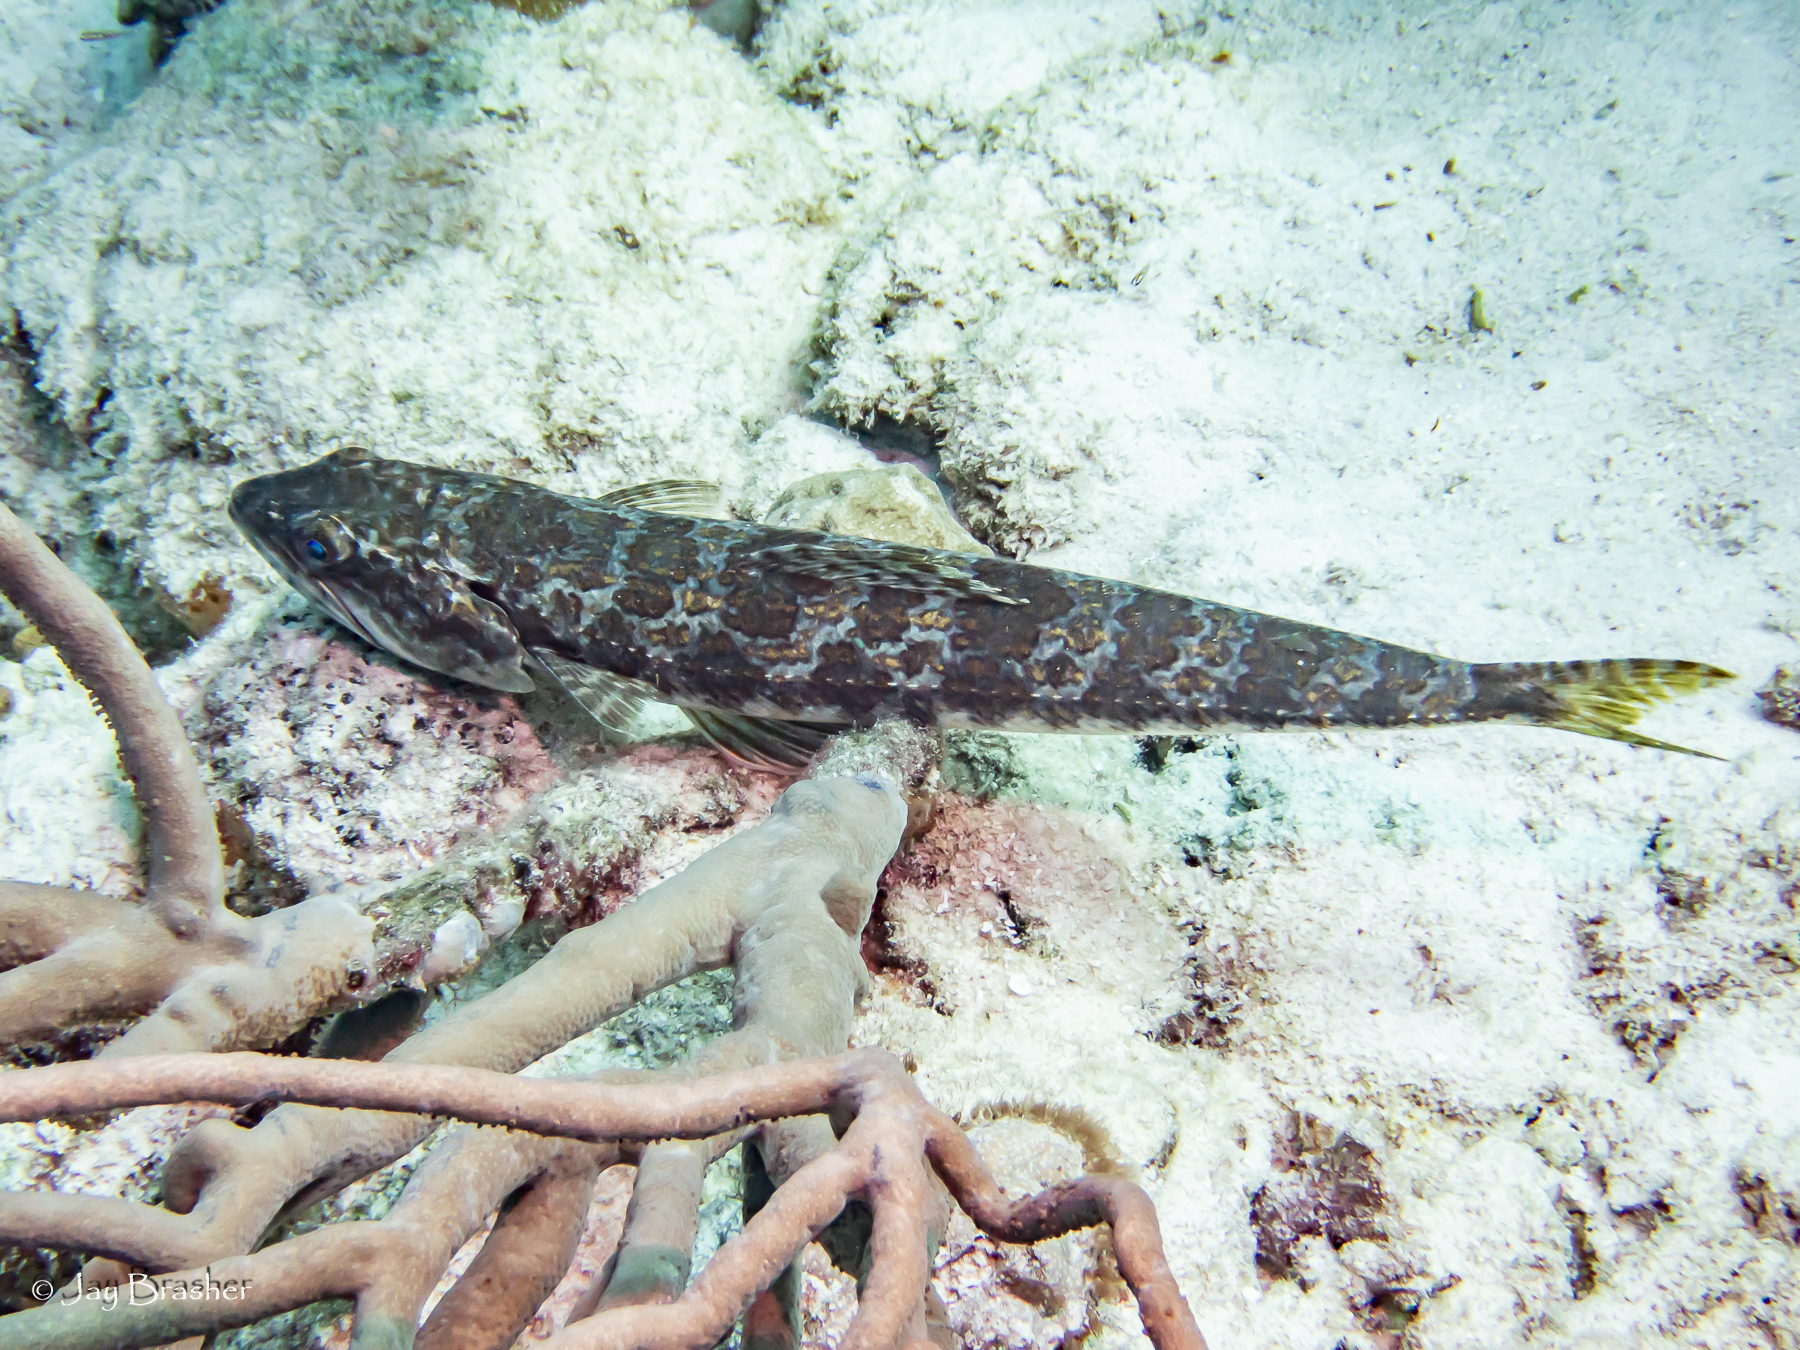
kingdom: Animalia
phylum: Chordata
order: Aulopiformes
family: Synodontidae
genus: Synodus
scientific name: Synodus intermedius
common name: Sand diver
